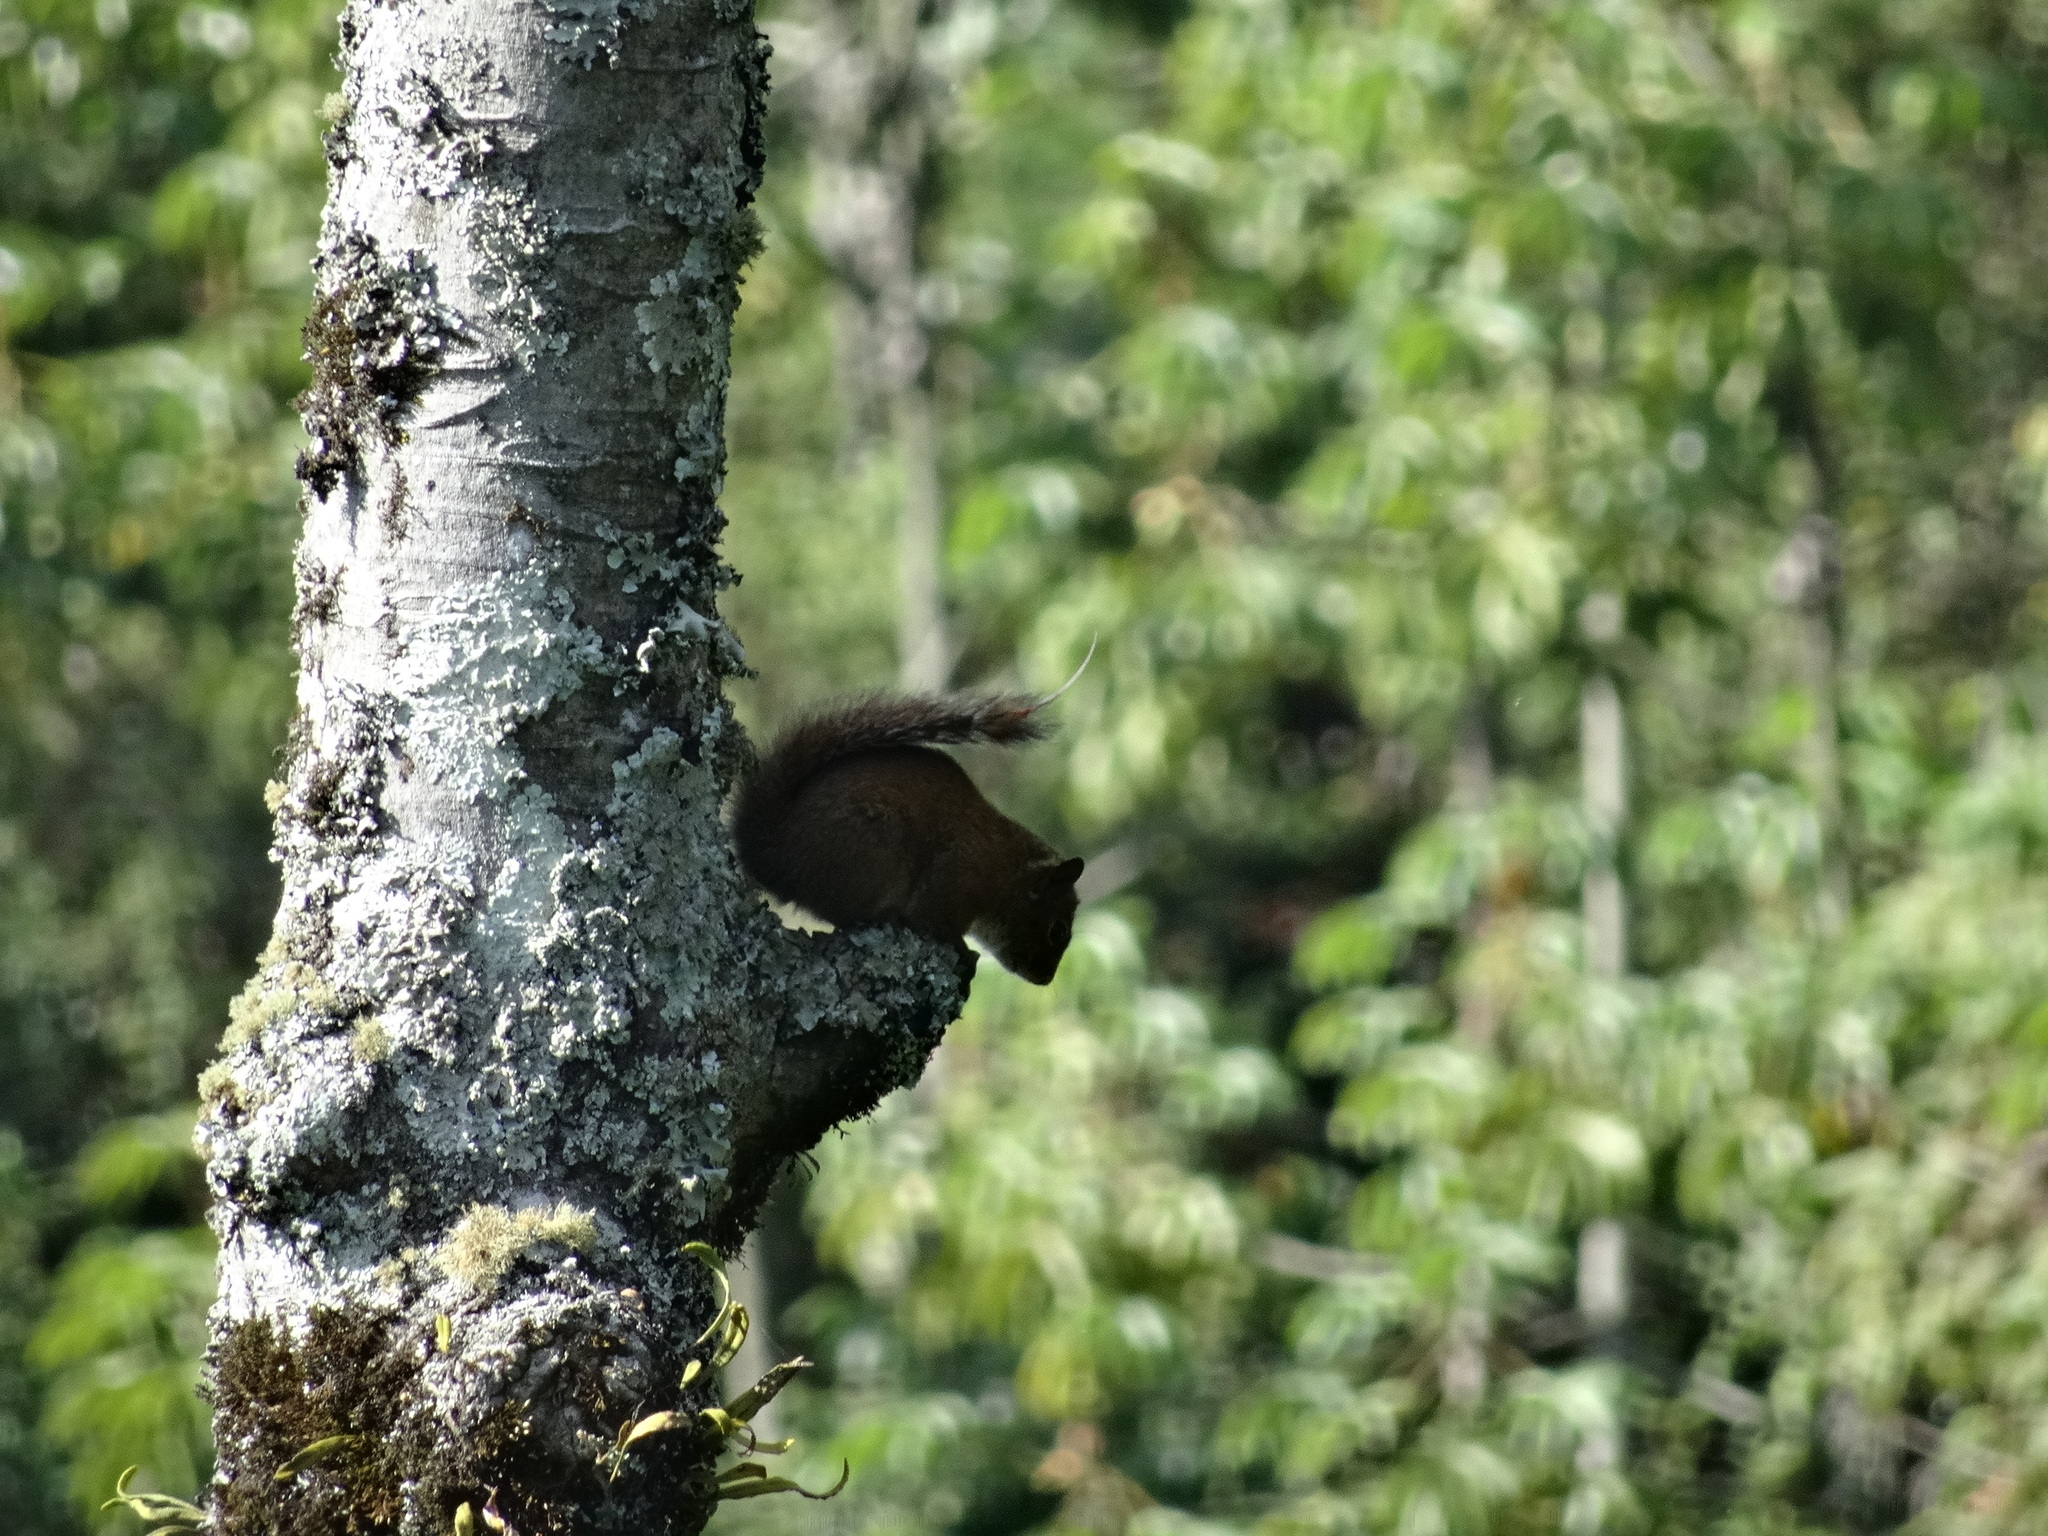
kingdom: Animalia
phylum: Chordata
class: Mammalia
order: Rodentia
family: Sciuridae
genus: Sciurus
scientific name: Sciurus pucheranii
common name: Andean squirrel
